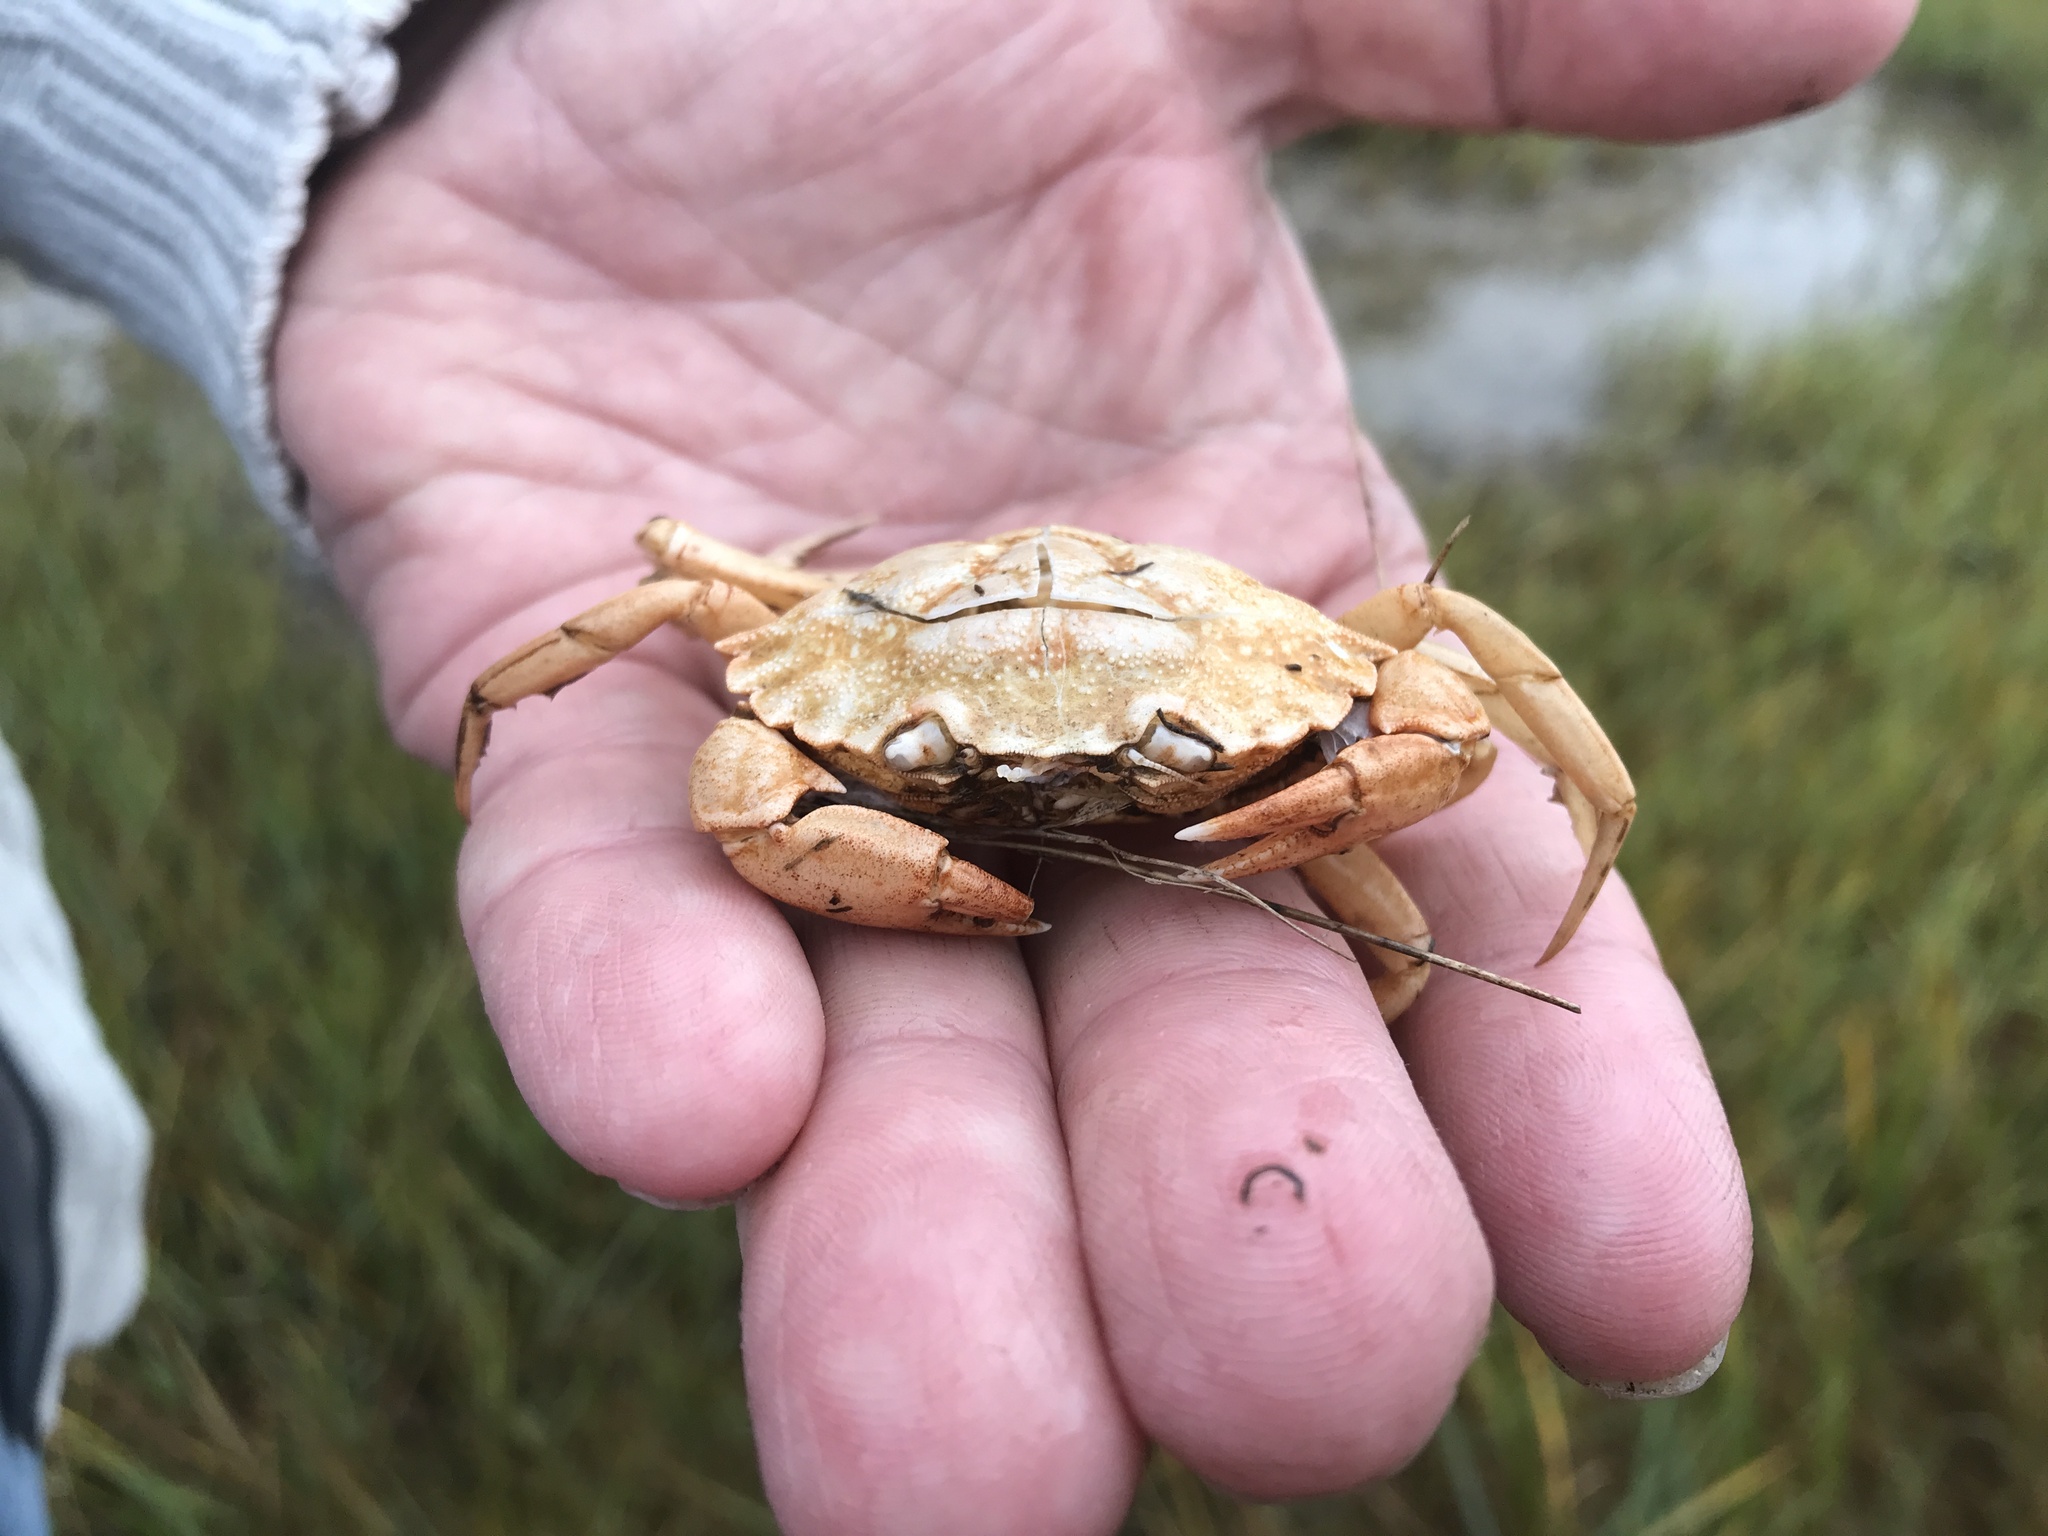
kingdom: Animalia
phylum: Arthropoda
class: Malacostraca
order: Decapoda
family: Carcinidae
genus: Carcinus
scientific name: Carcinus maenas
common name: European green crab
